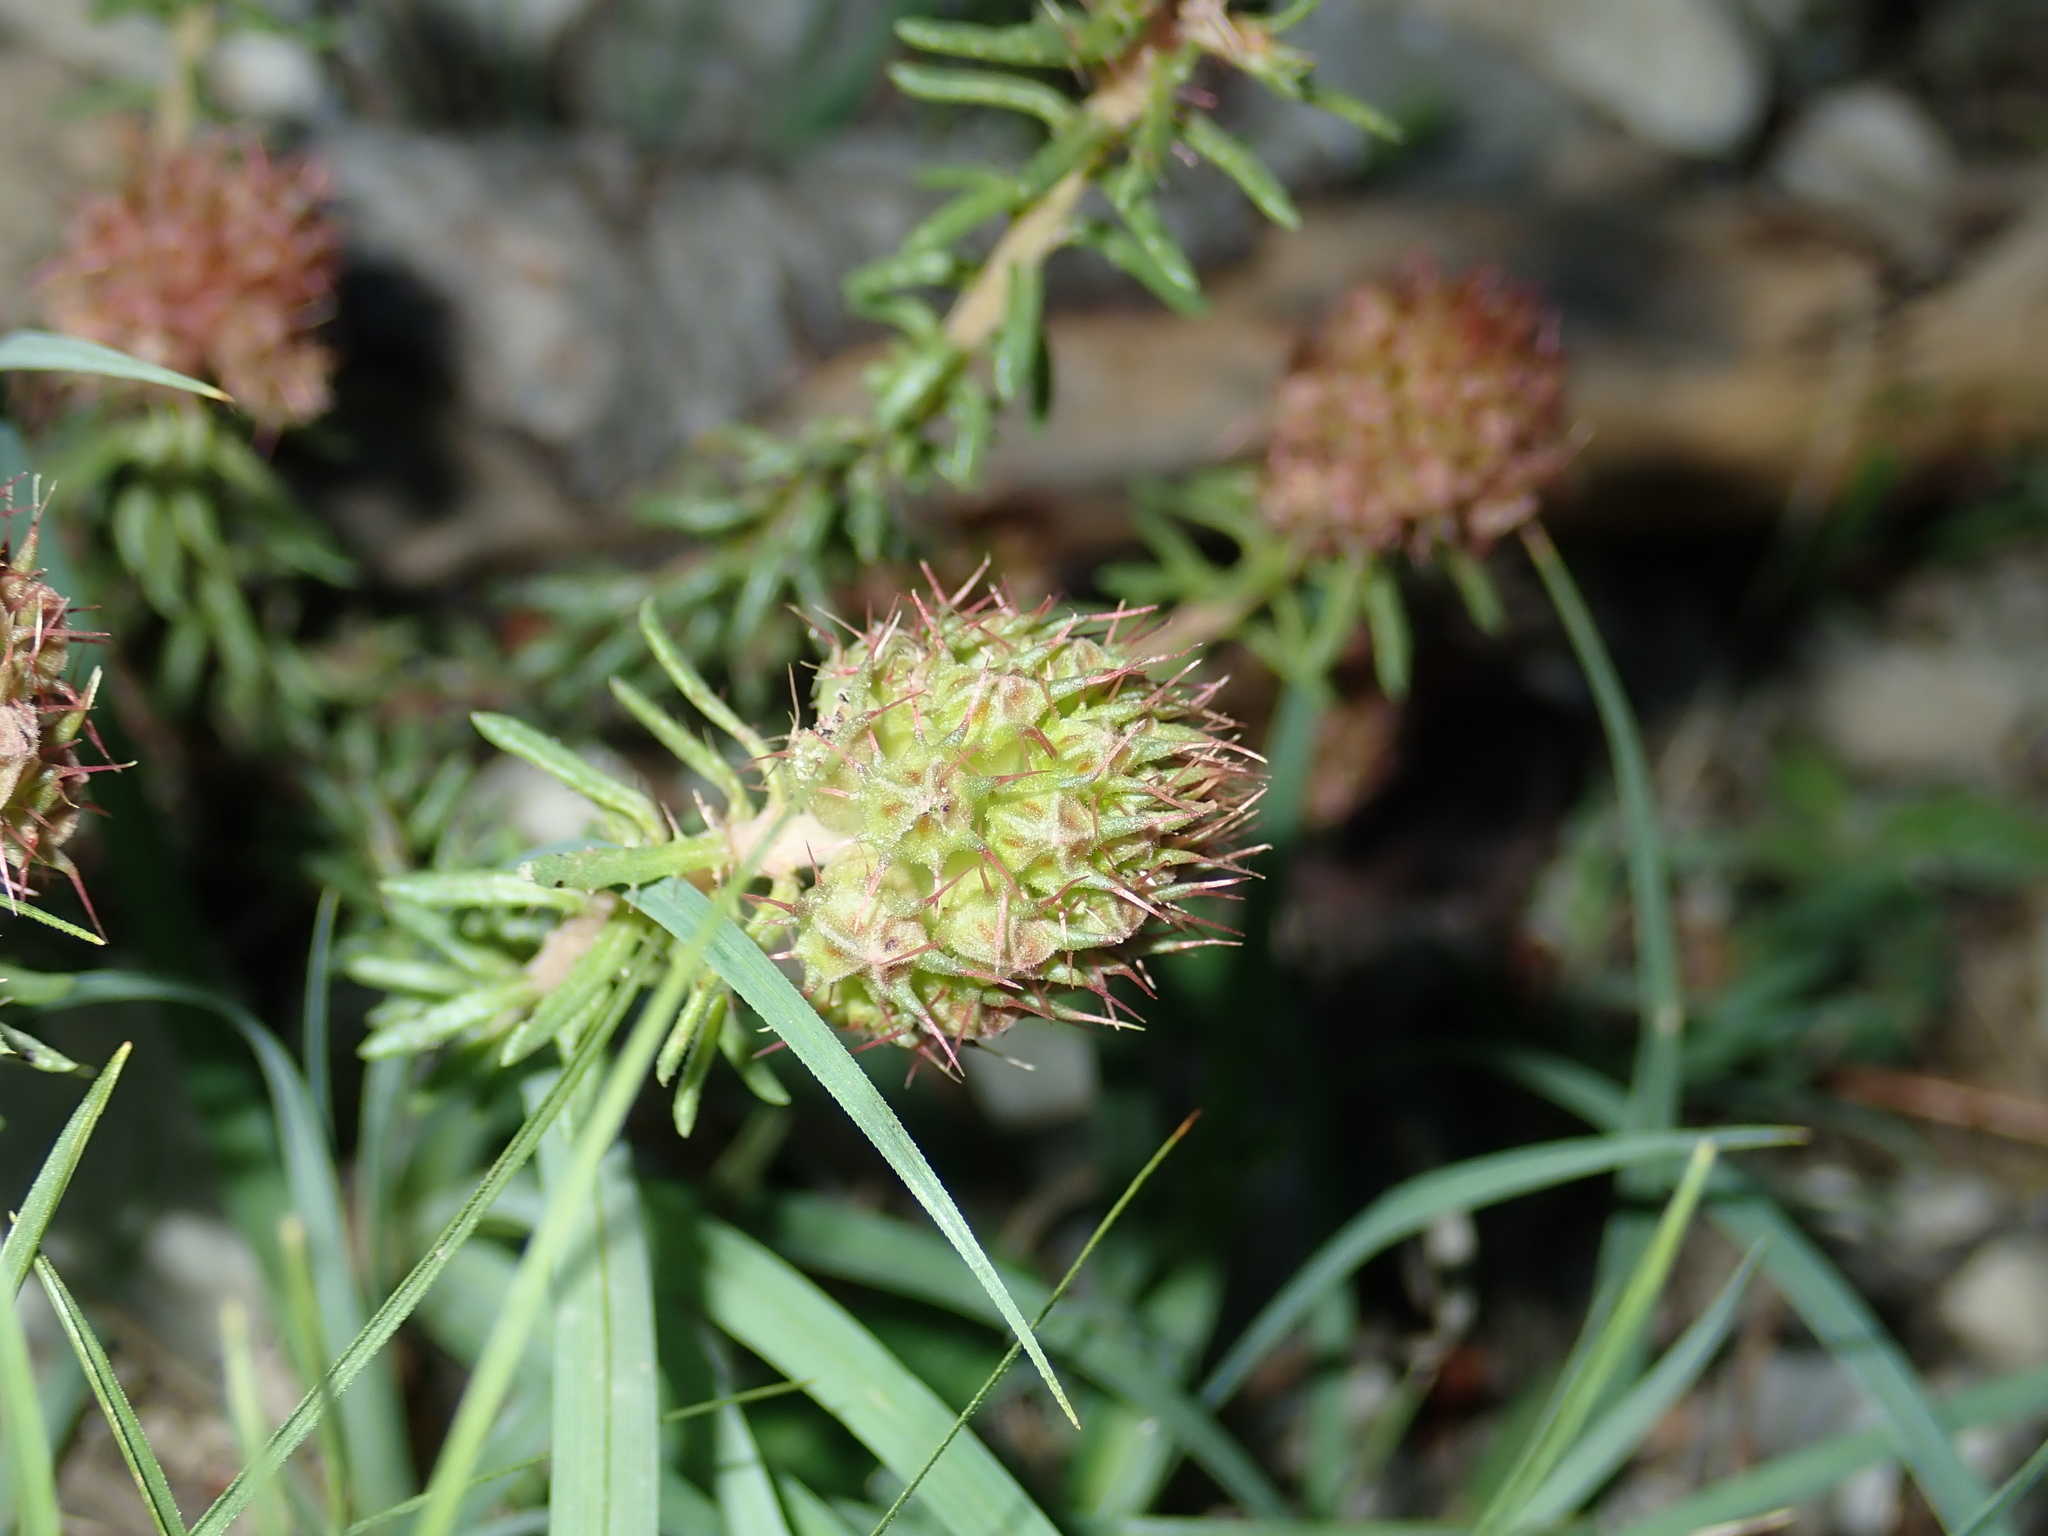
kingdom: Plantae
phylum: Tracheophyta
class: Magnoliopsida
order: Ericales
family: Primulaceae
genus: Coris
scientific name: Coris monspeliensis
